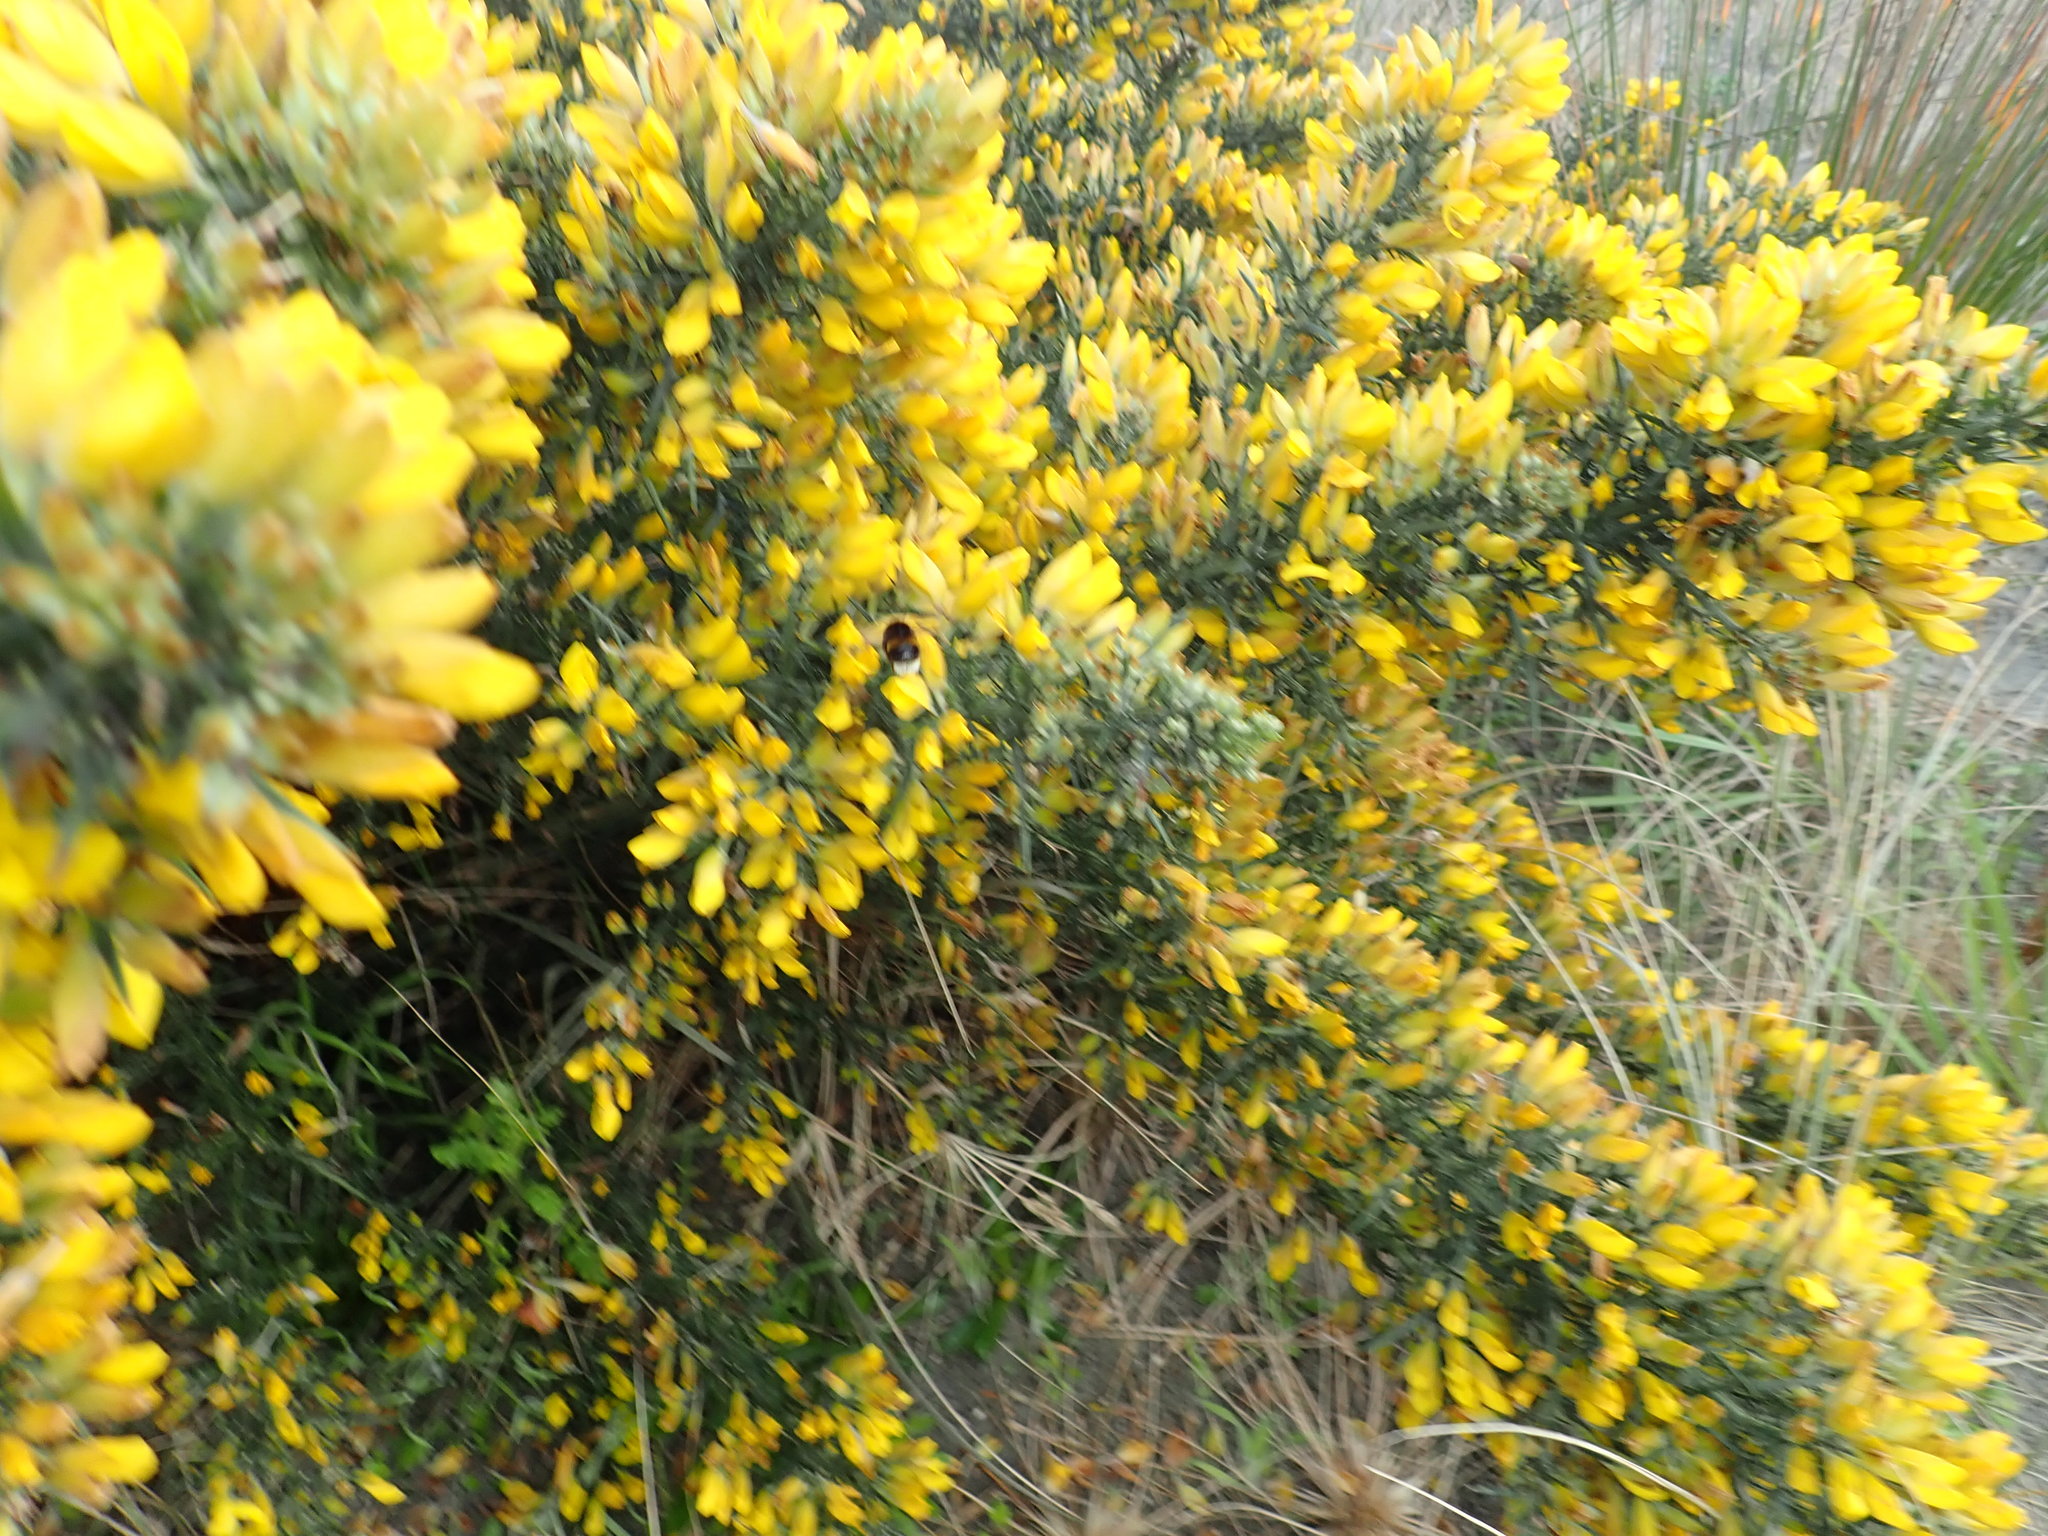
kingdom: Animalia
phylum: Arthropoda
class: Insecta
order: Hymenoptera
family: Apidae
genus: Bombus
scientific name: Bombus terrestris
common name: Buff-tailed bumblebee
